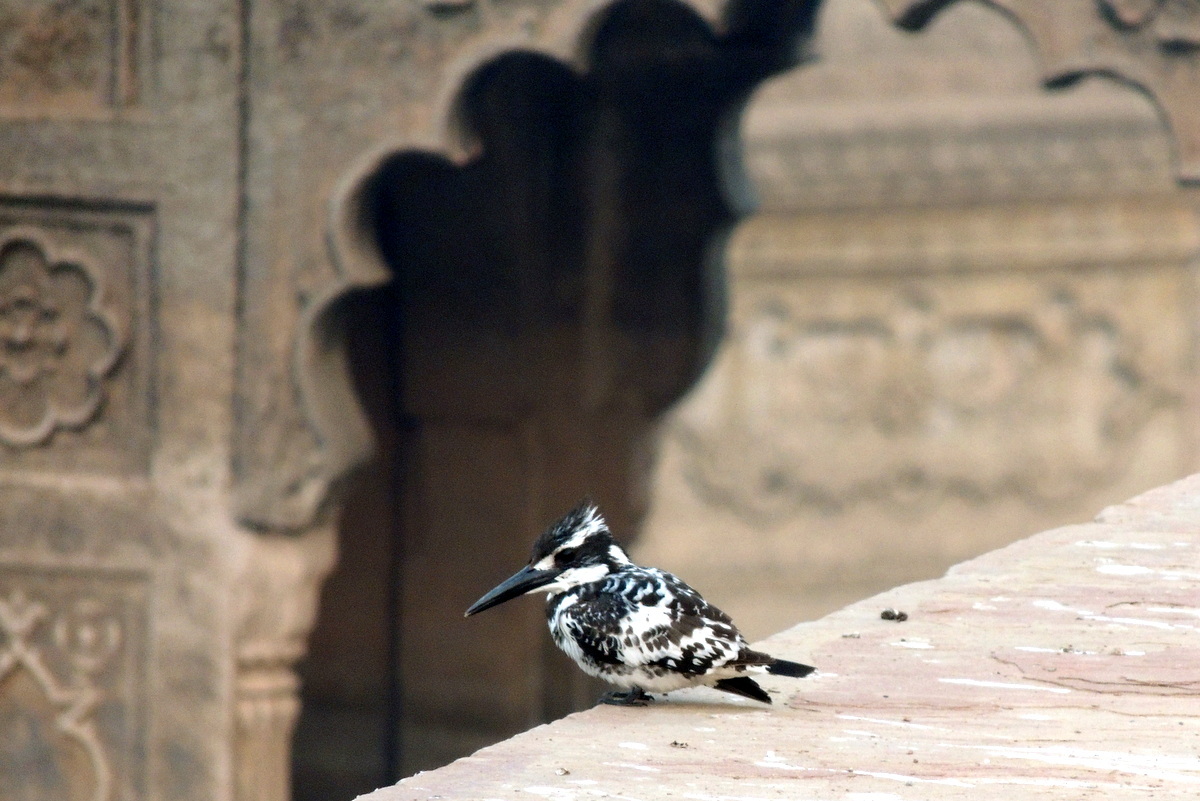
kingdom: Animalia
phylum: Chordata
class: Aves
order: Coraciiformes
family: Alcedinidae
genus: Ceryle
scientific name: Ceryle rudis
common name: Pied kingfisher
